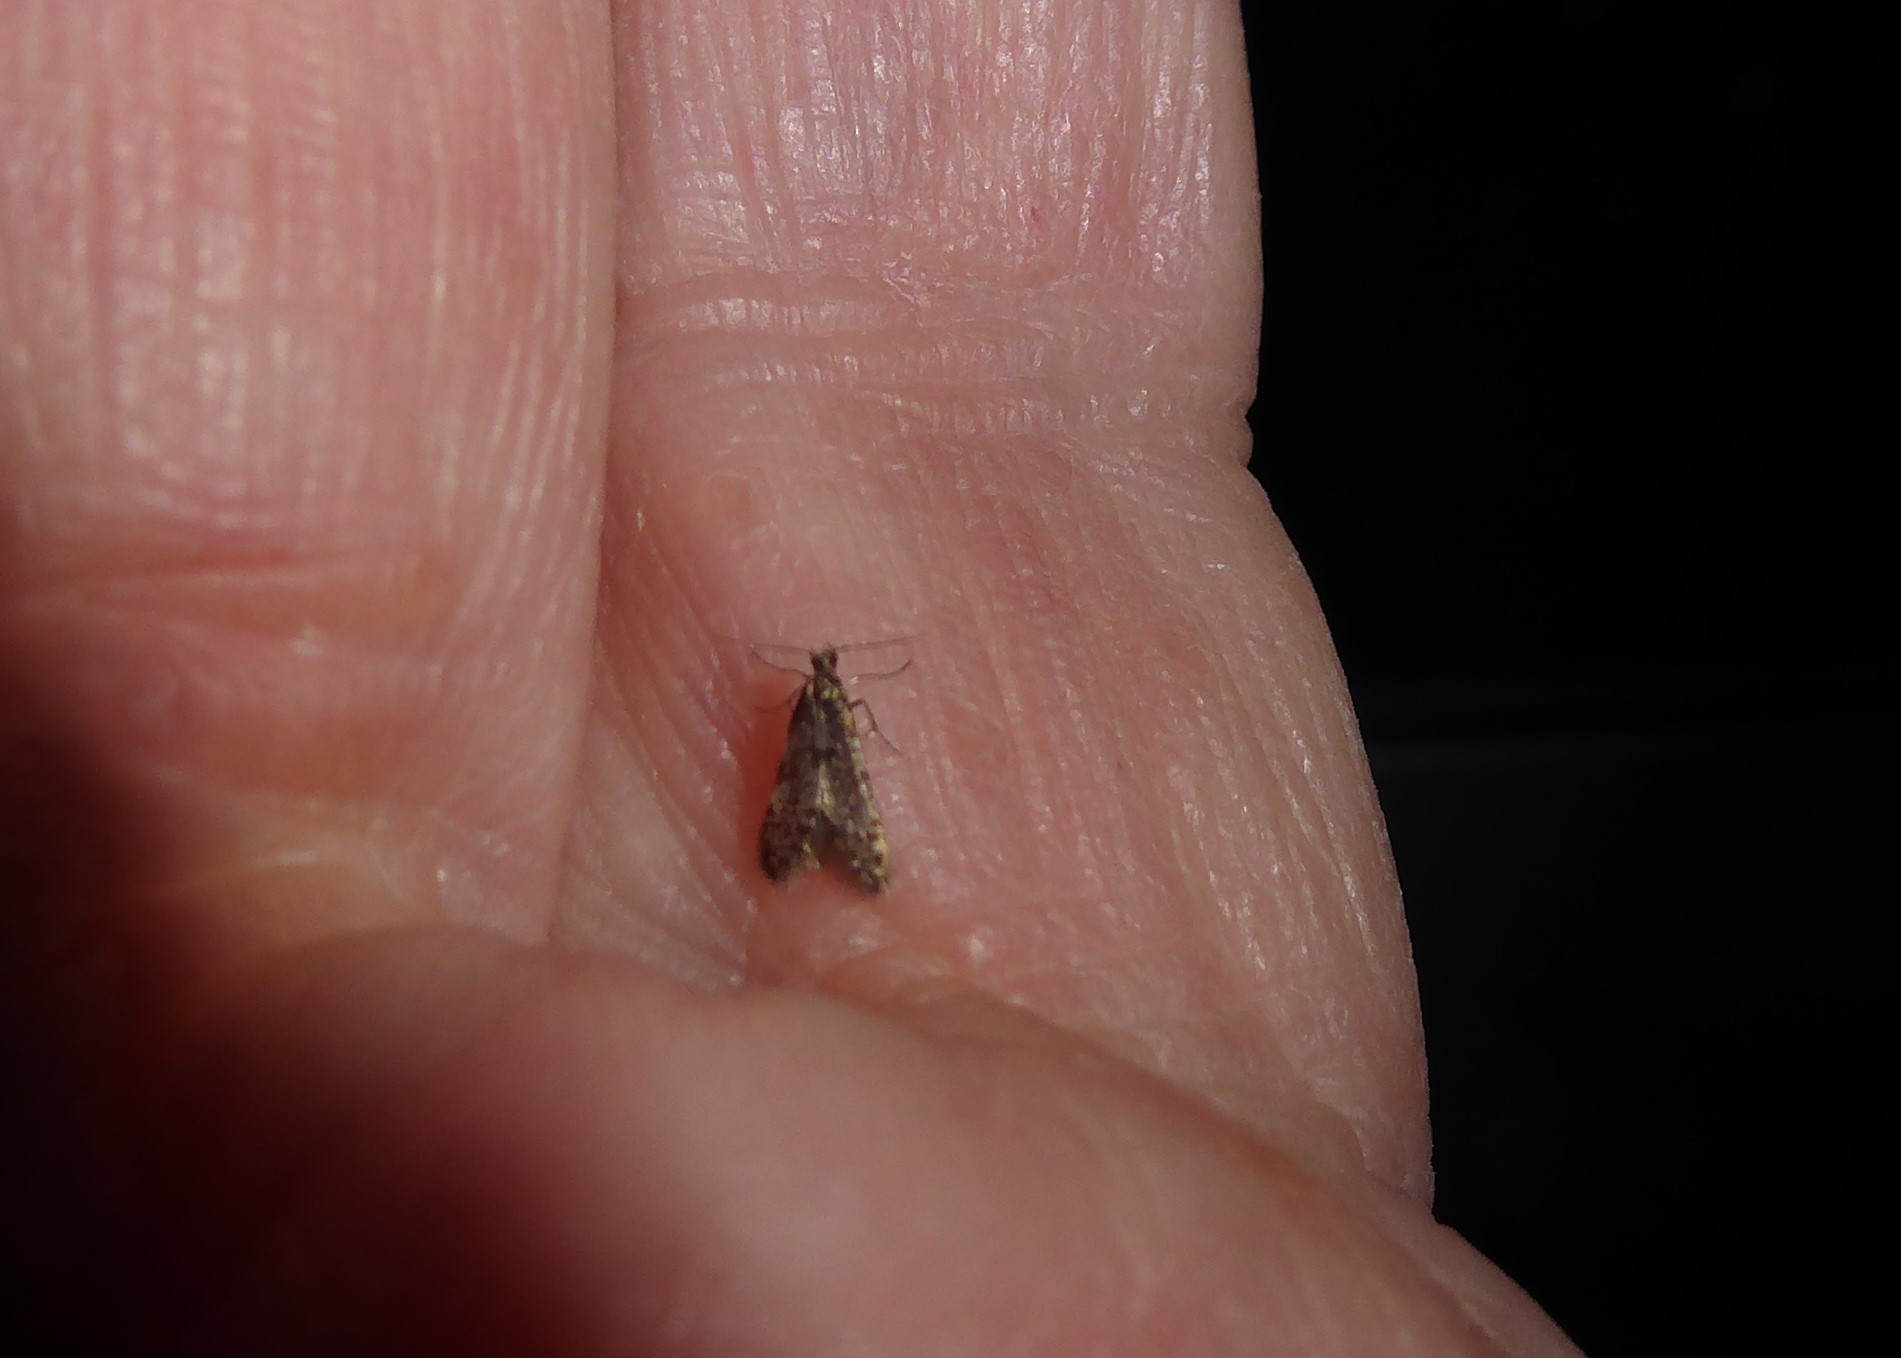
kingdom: Animalia
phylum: Arthropoda
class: Insecta
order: Lepidoptera
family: Psychidae
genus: Grypotheca
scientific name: Grypotheca pertinax
